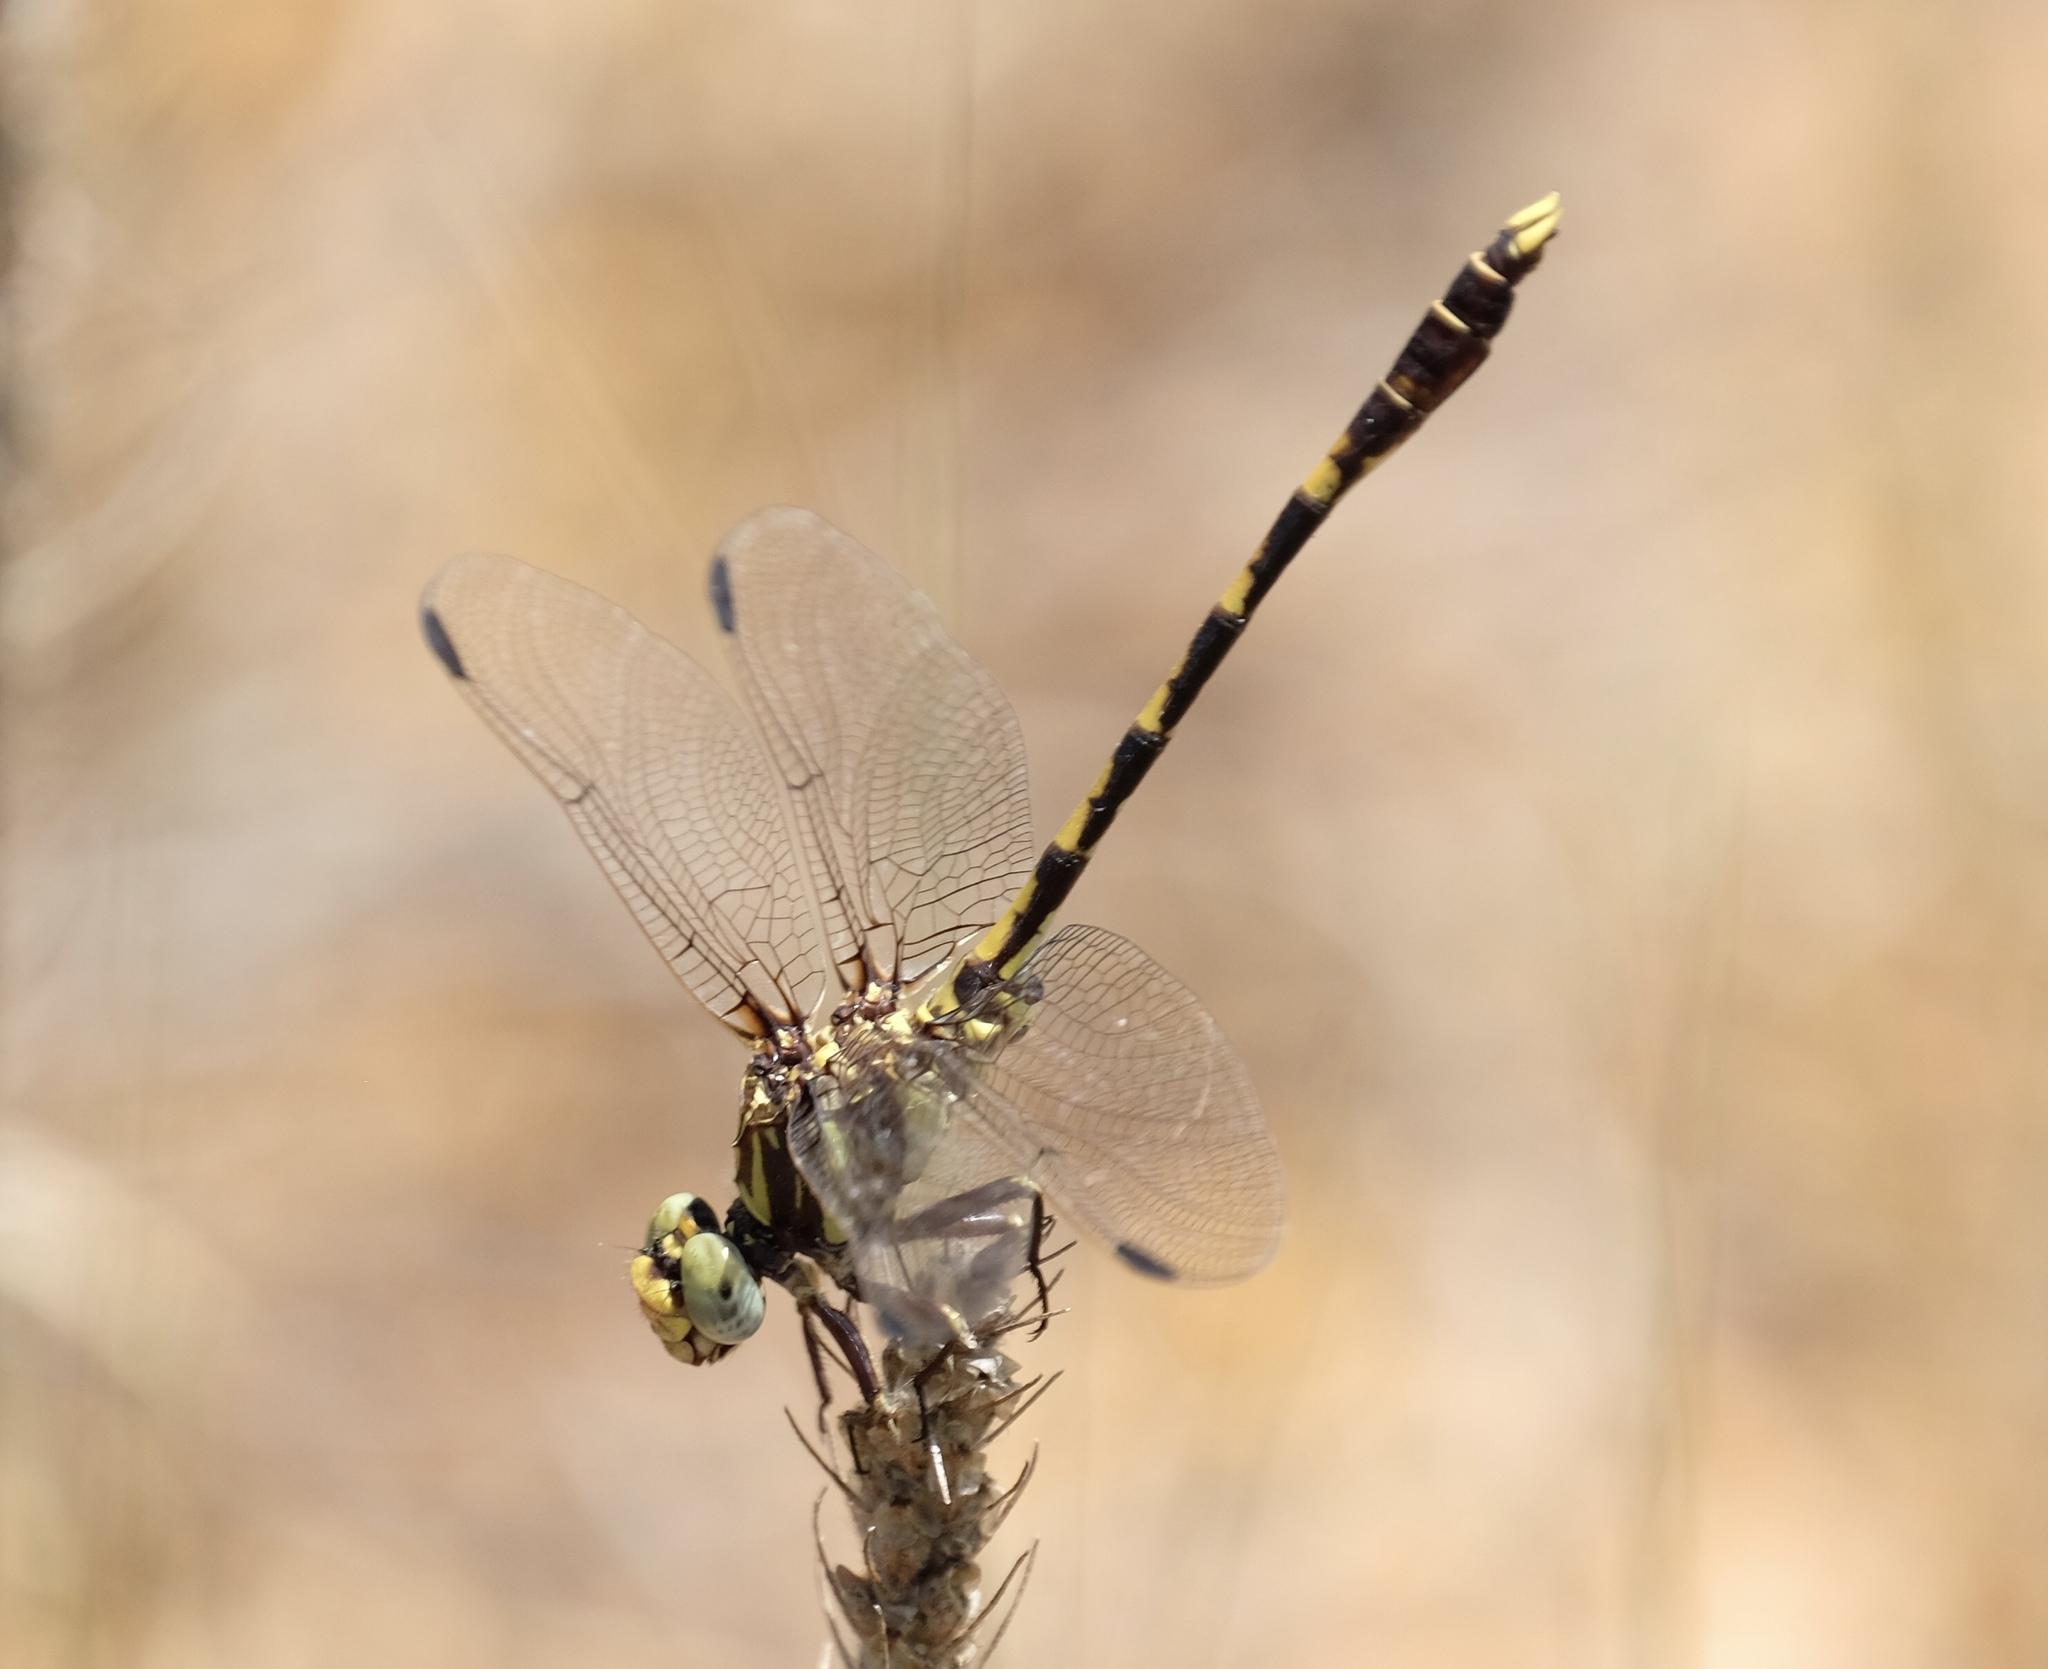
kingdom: Animalia
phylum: Arthropoda
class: Insecta
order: Odonata
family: Gomphidae
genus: Progomphus
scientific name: Progomphus obscurus
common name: Common sanddragon
